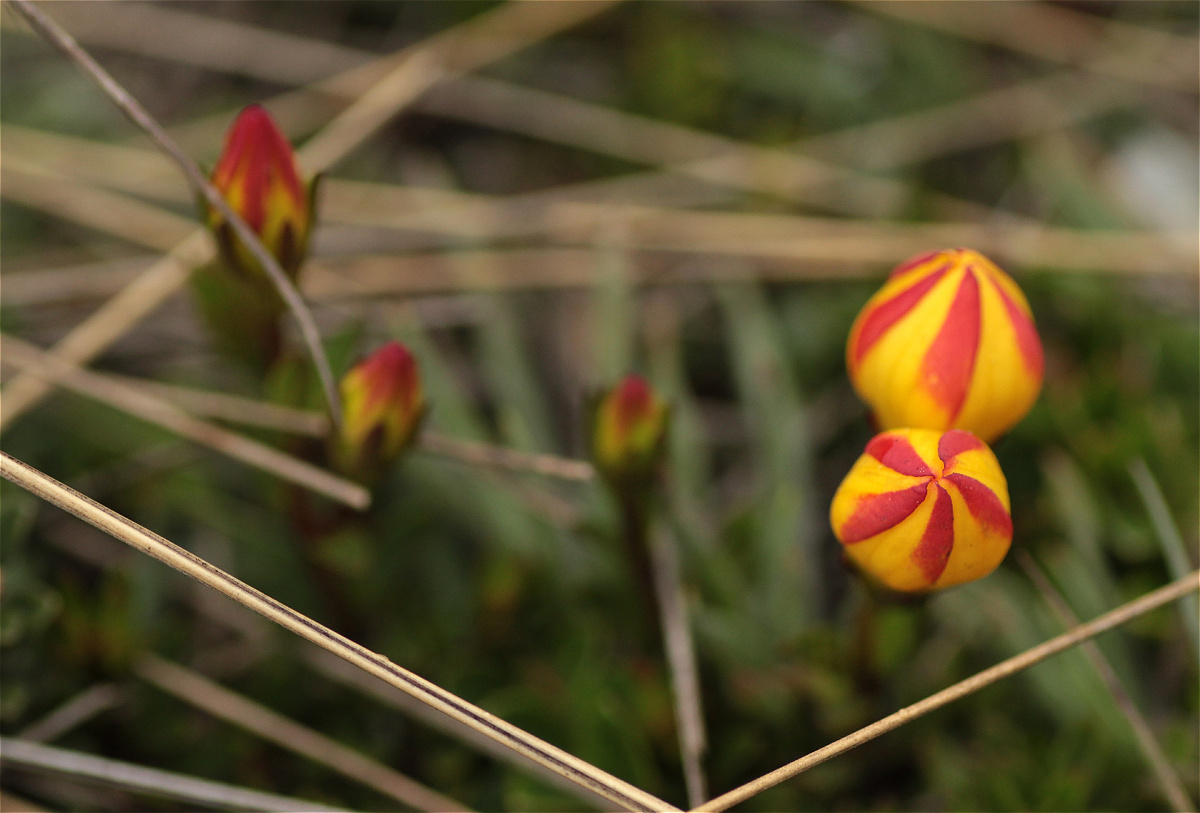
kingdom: Plantae
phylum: Tracheophyta
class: Magnoliopsida
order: Gentianales
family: Gentianaceae
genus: Gentianella
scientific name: Gentianella hirculus
